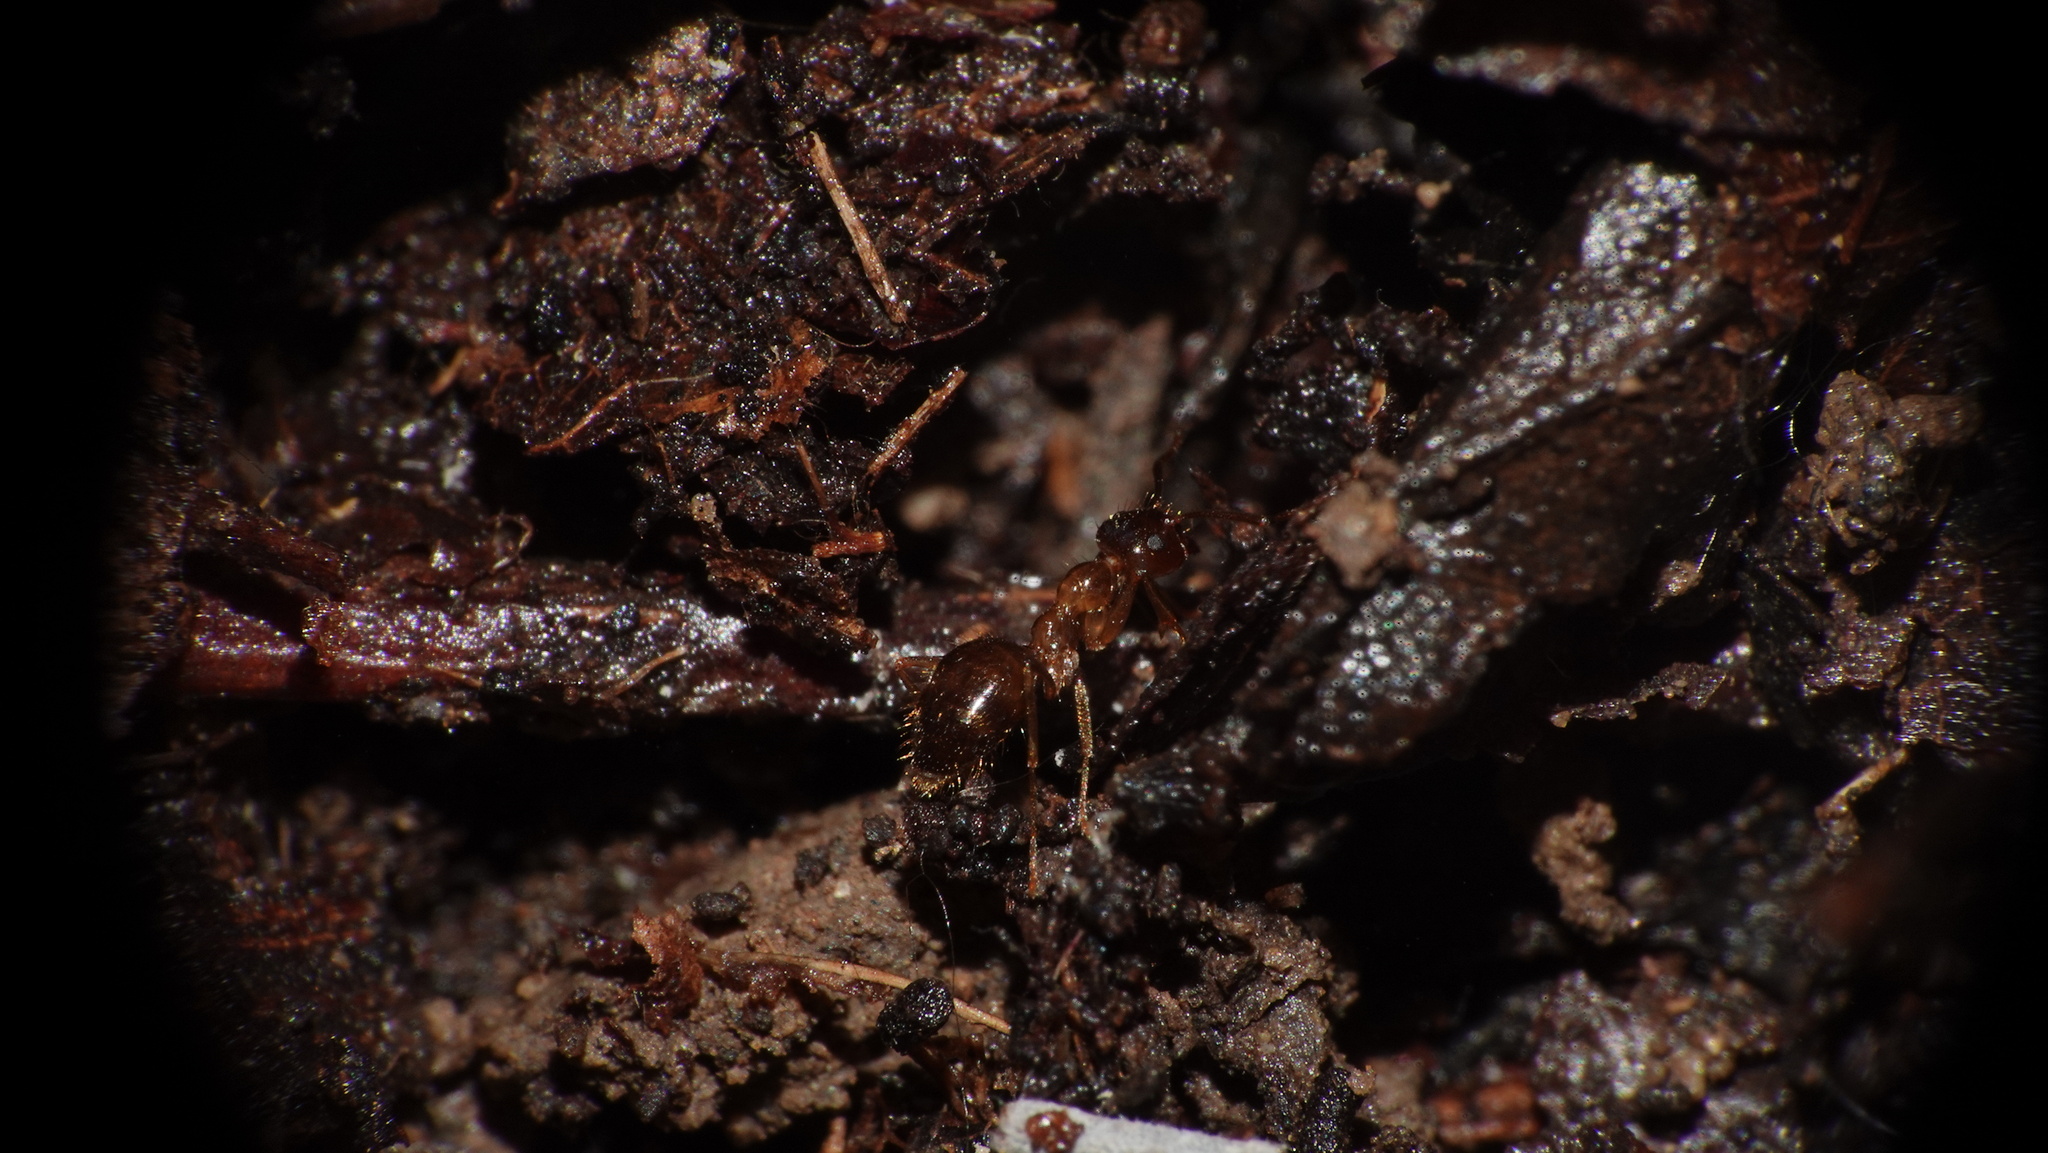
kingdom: Animalia
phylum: Arthropoda
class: Insecta
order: Hymenoptera
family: Formicidae
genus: Prenolepis
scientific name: Prenolepis nitens
